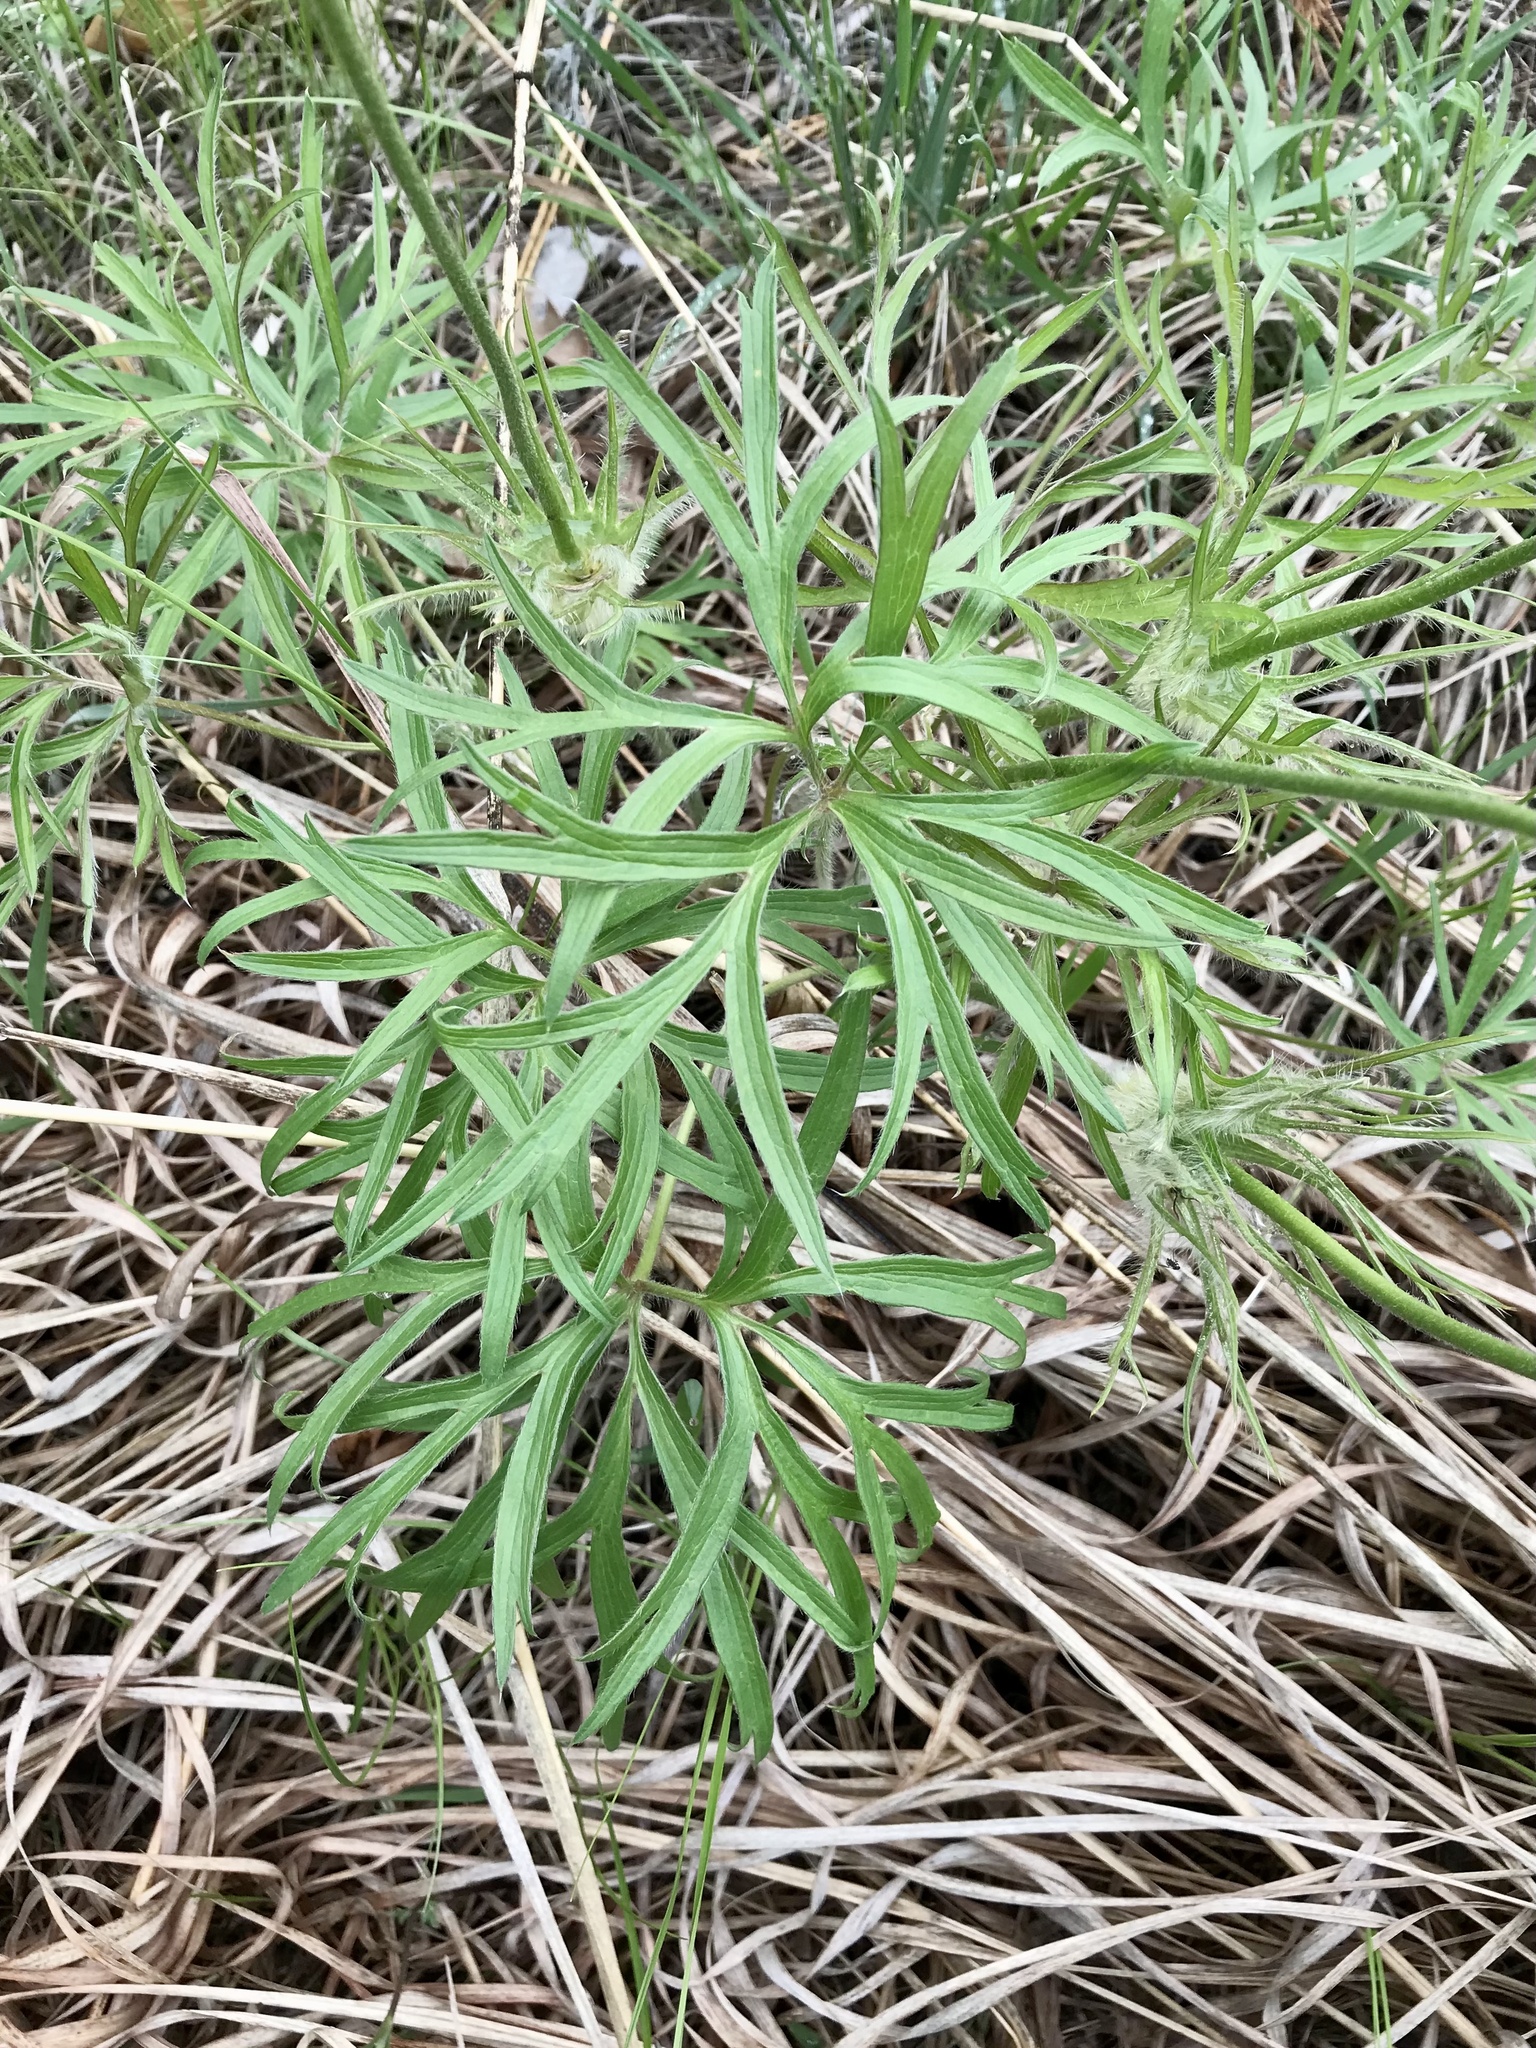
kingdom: Plantae
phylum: Tracheophyta
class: Magnoliopsida
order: Ranunculales
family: Ranunculaceae
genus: Pulsatilla
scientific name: Pulsatilla nuttalliana
